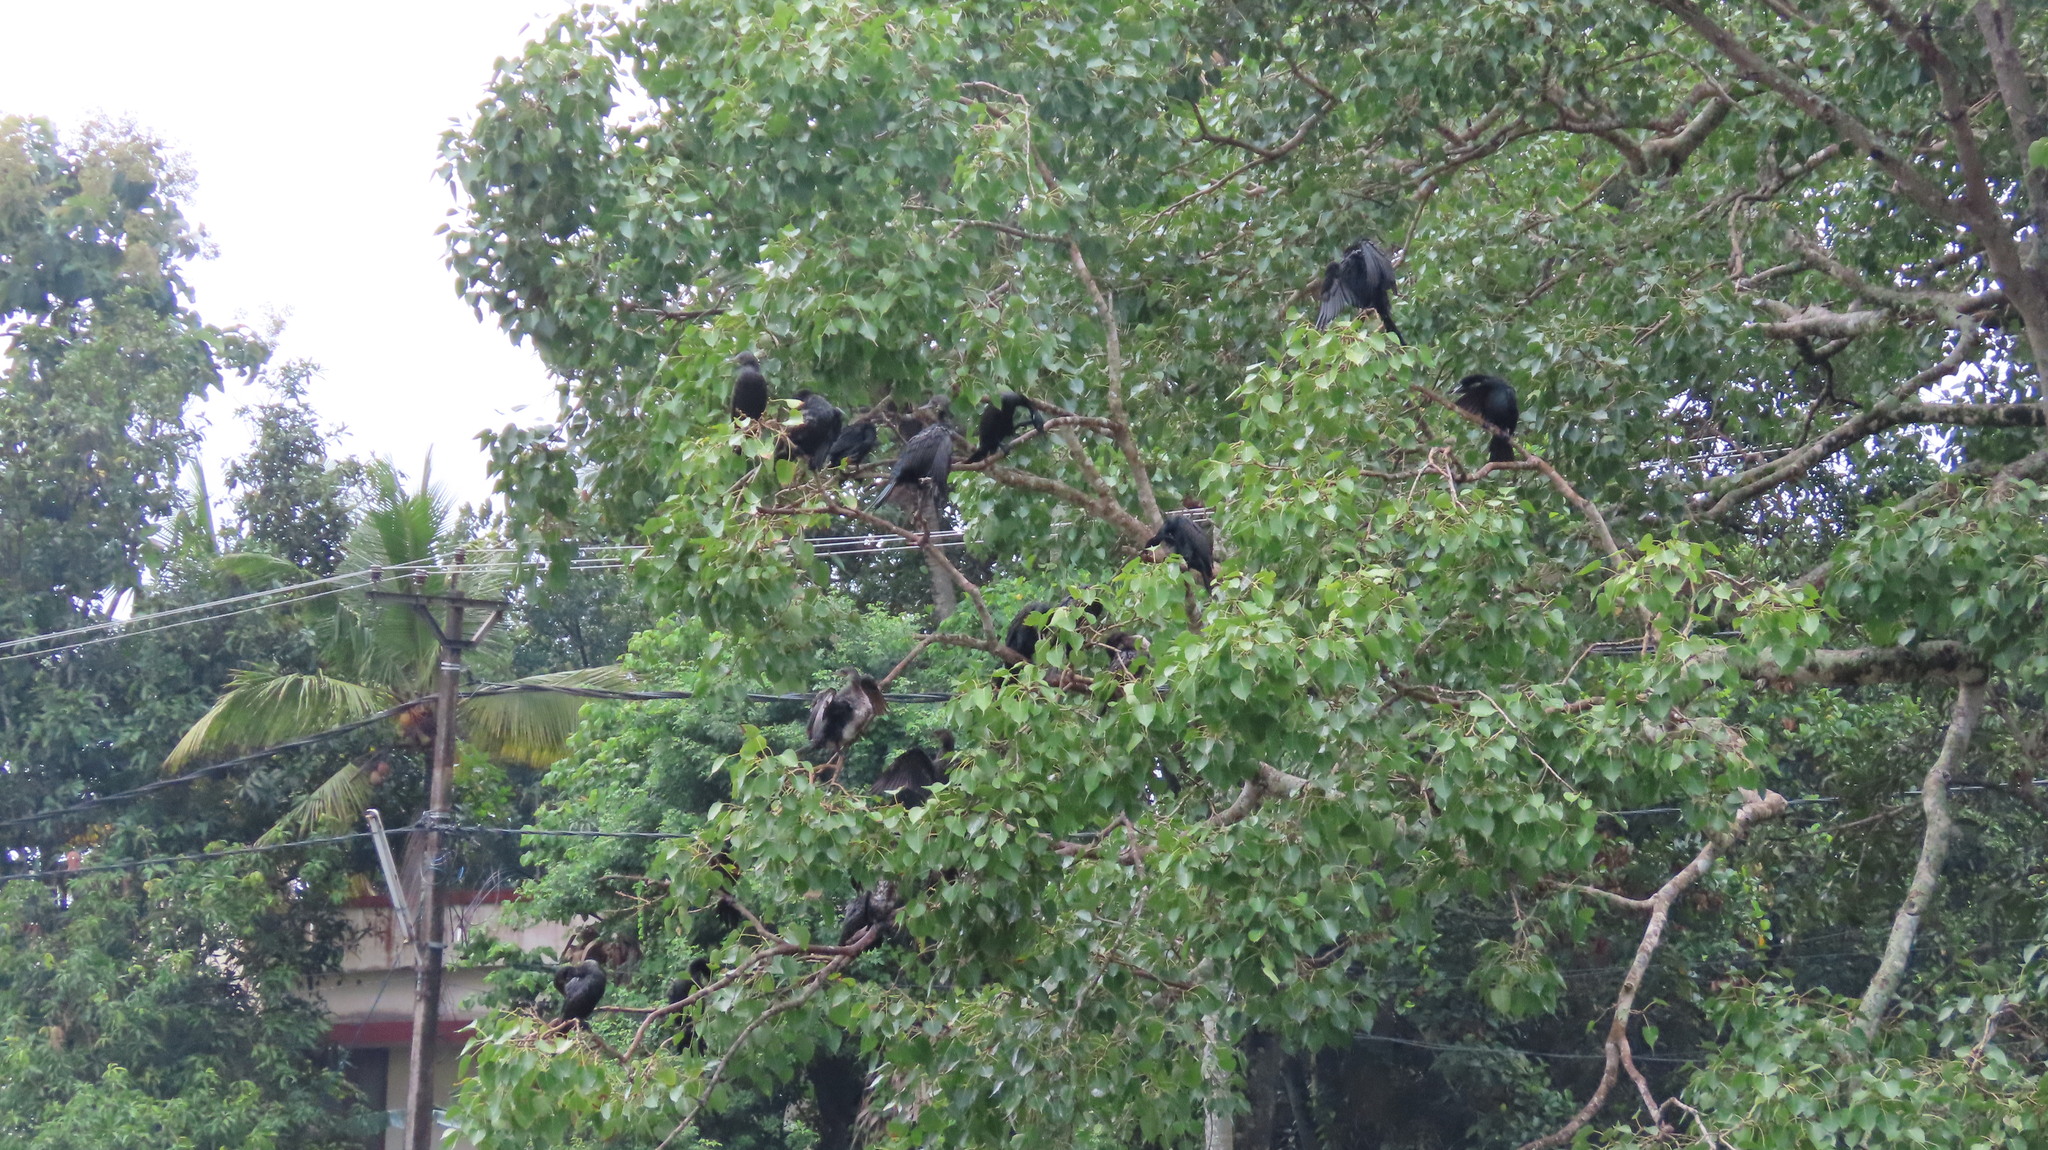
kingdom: Animalia
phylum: Chordata
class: Aves
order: Suliformes
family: Phalacrocoracidae
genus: Phalacrocorax
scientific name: Phalacrocorax fuscicollis
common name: Indian cormorant
